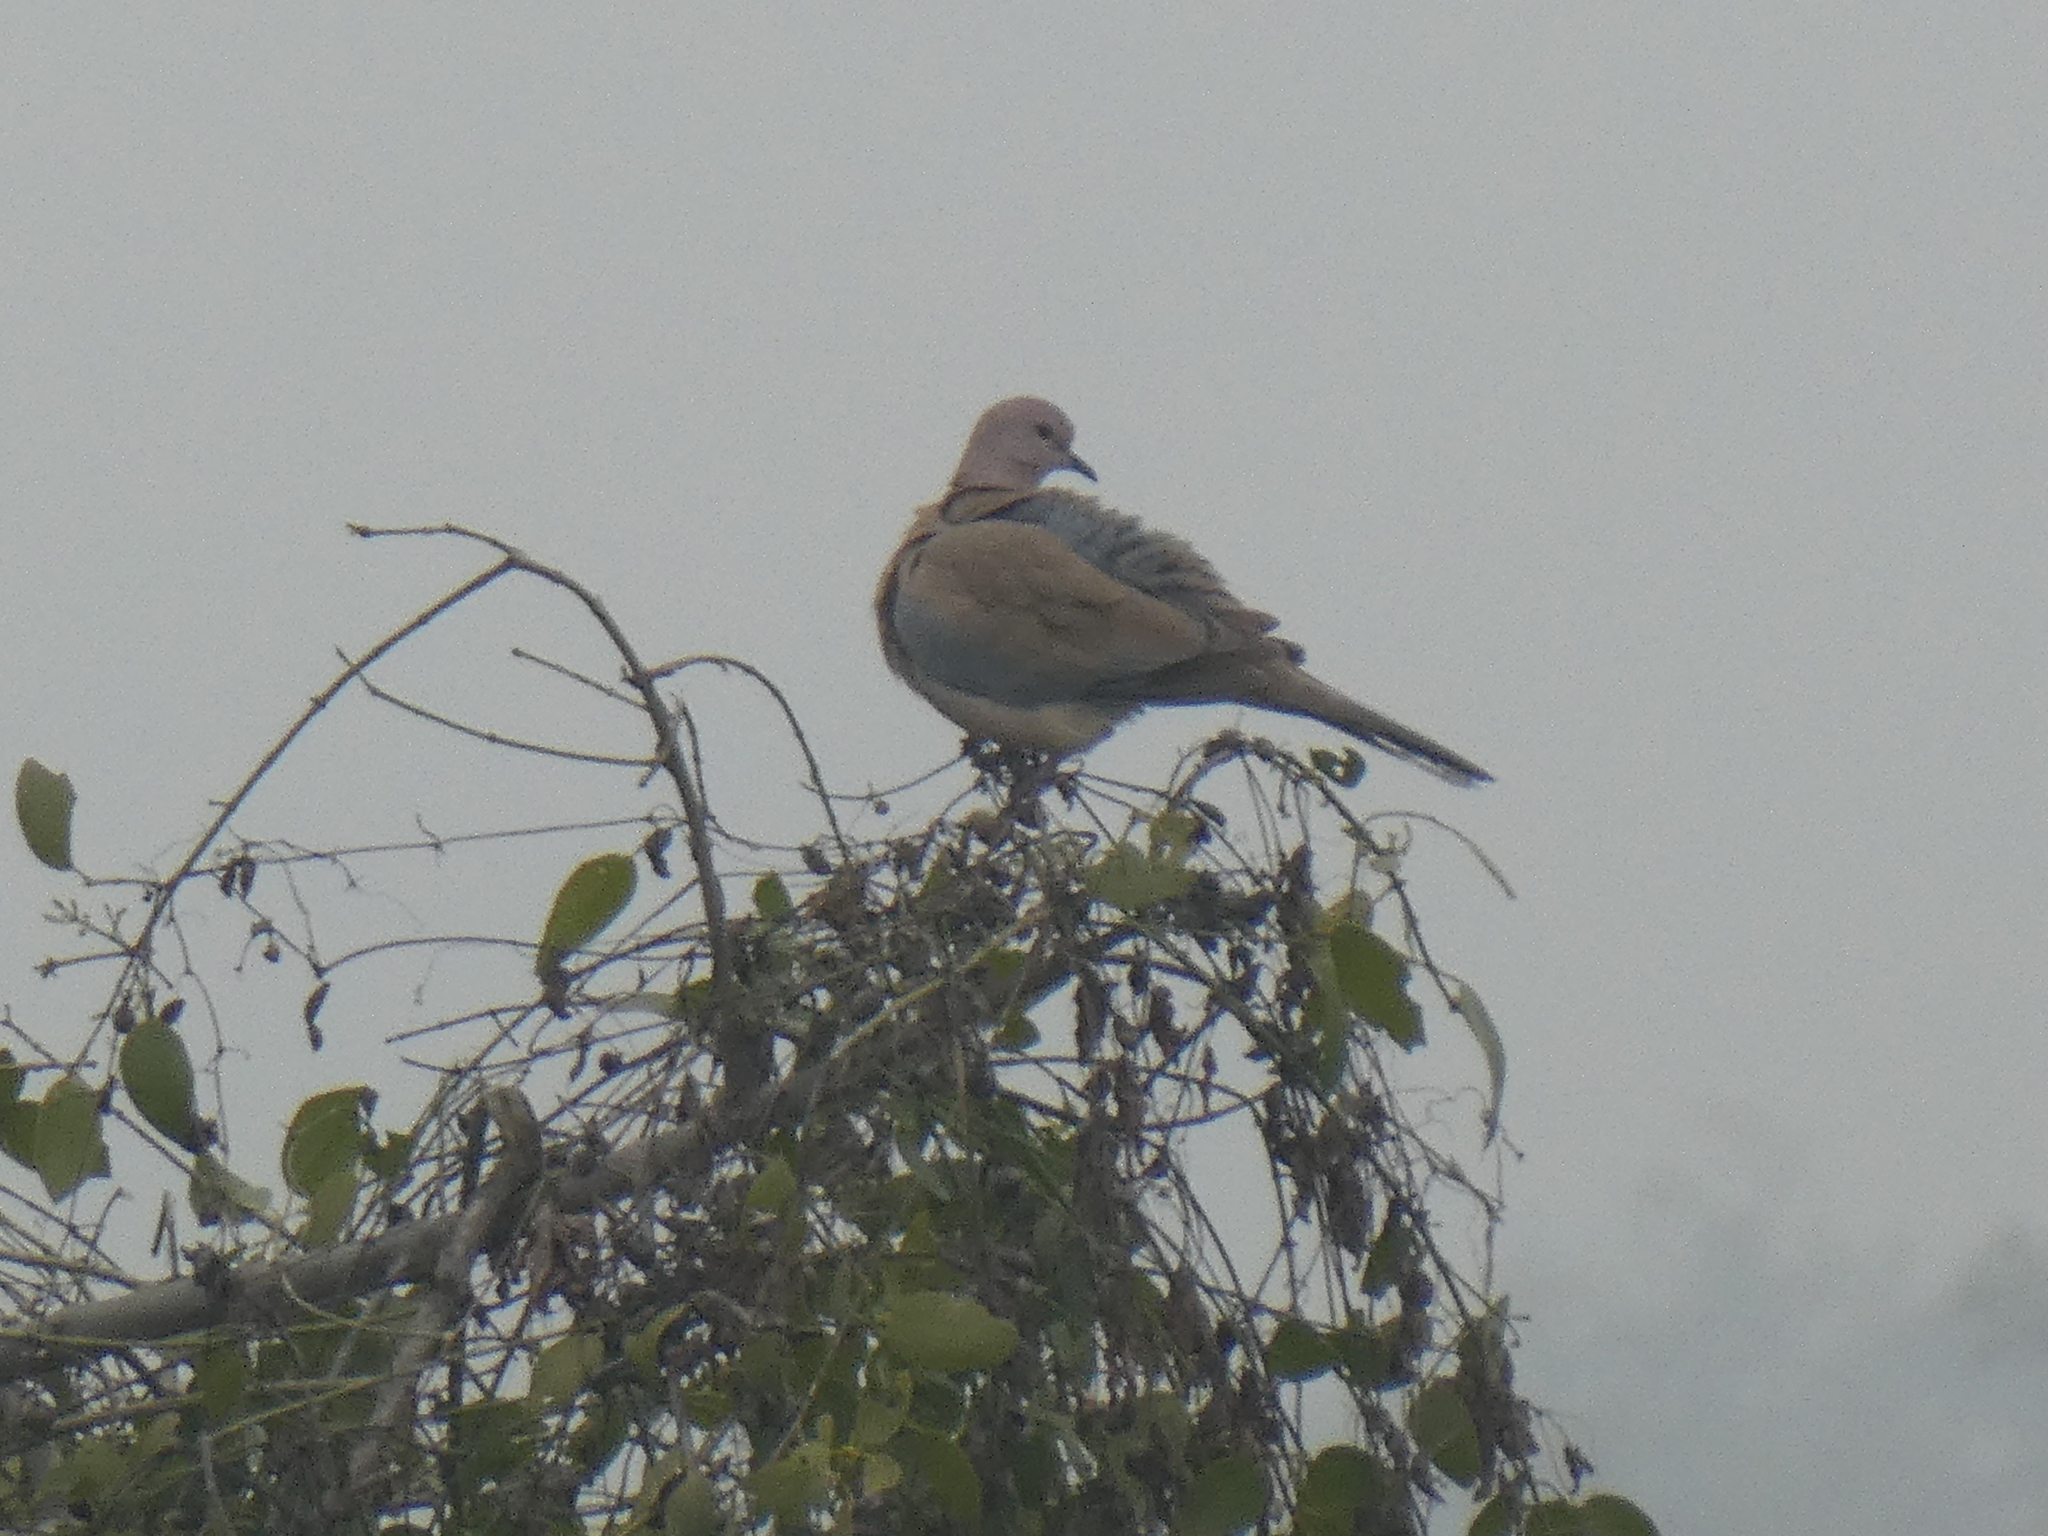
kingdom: Animalia
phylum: Chordata
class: Aves
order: Columbiformes
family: Columbidae
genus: Spilopelia
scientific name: Spilopelia senegalensis
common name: Laughing dove
